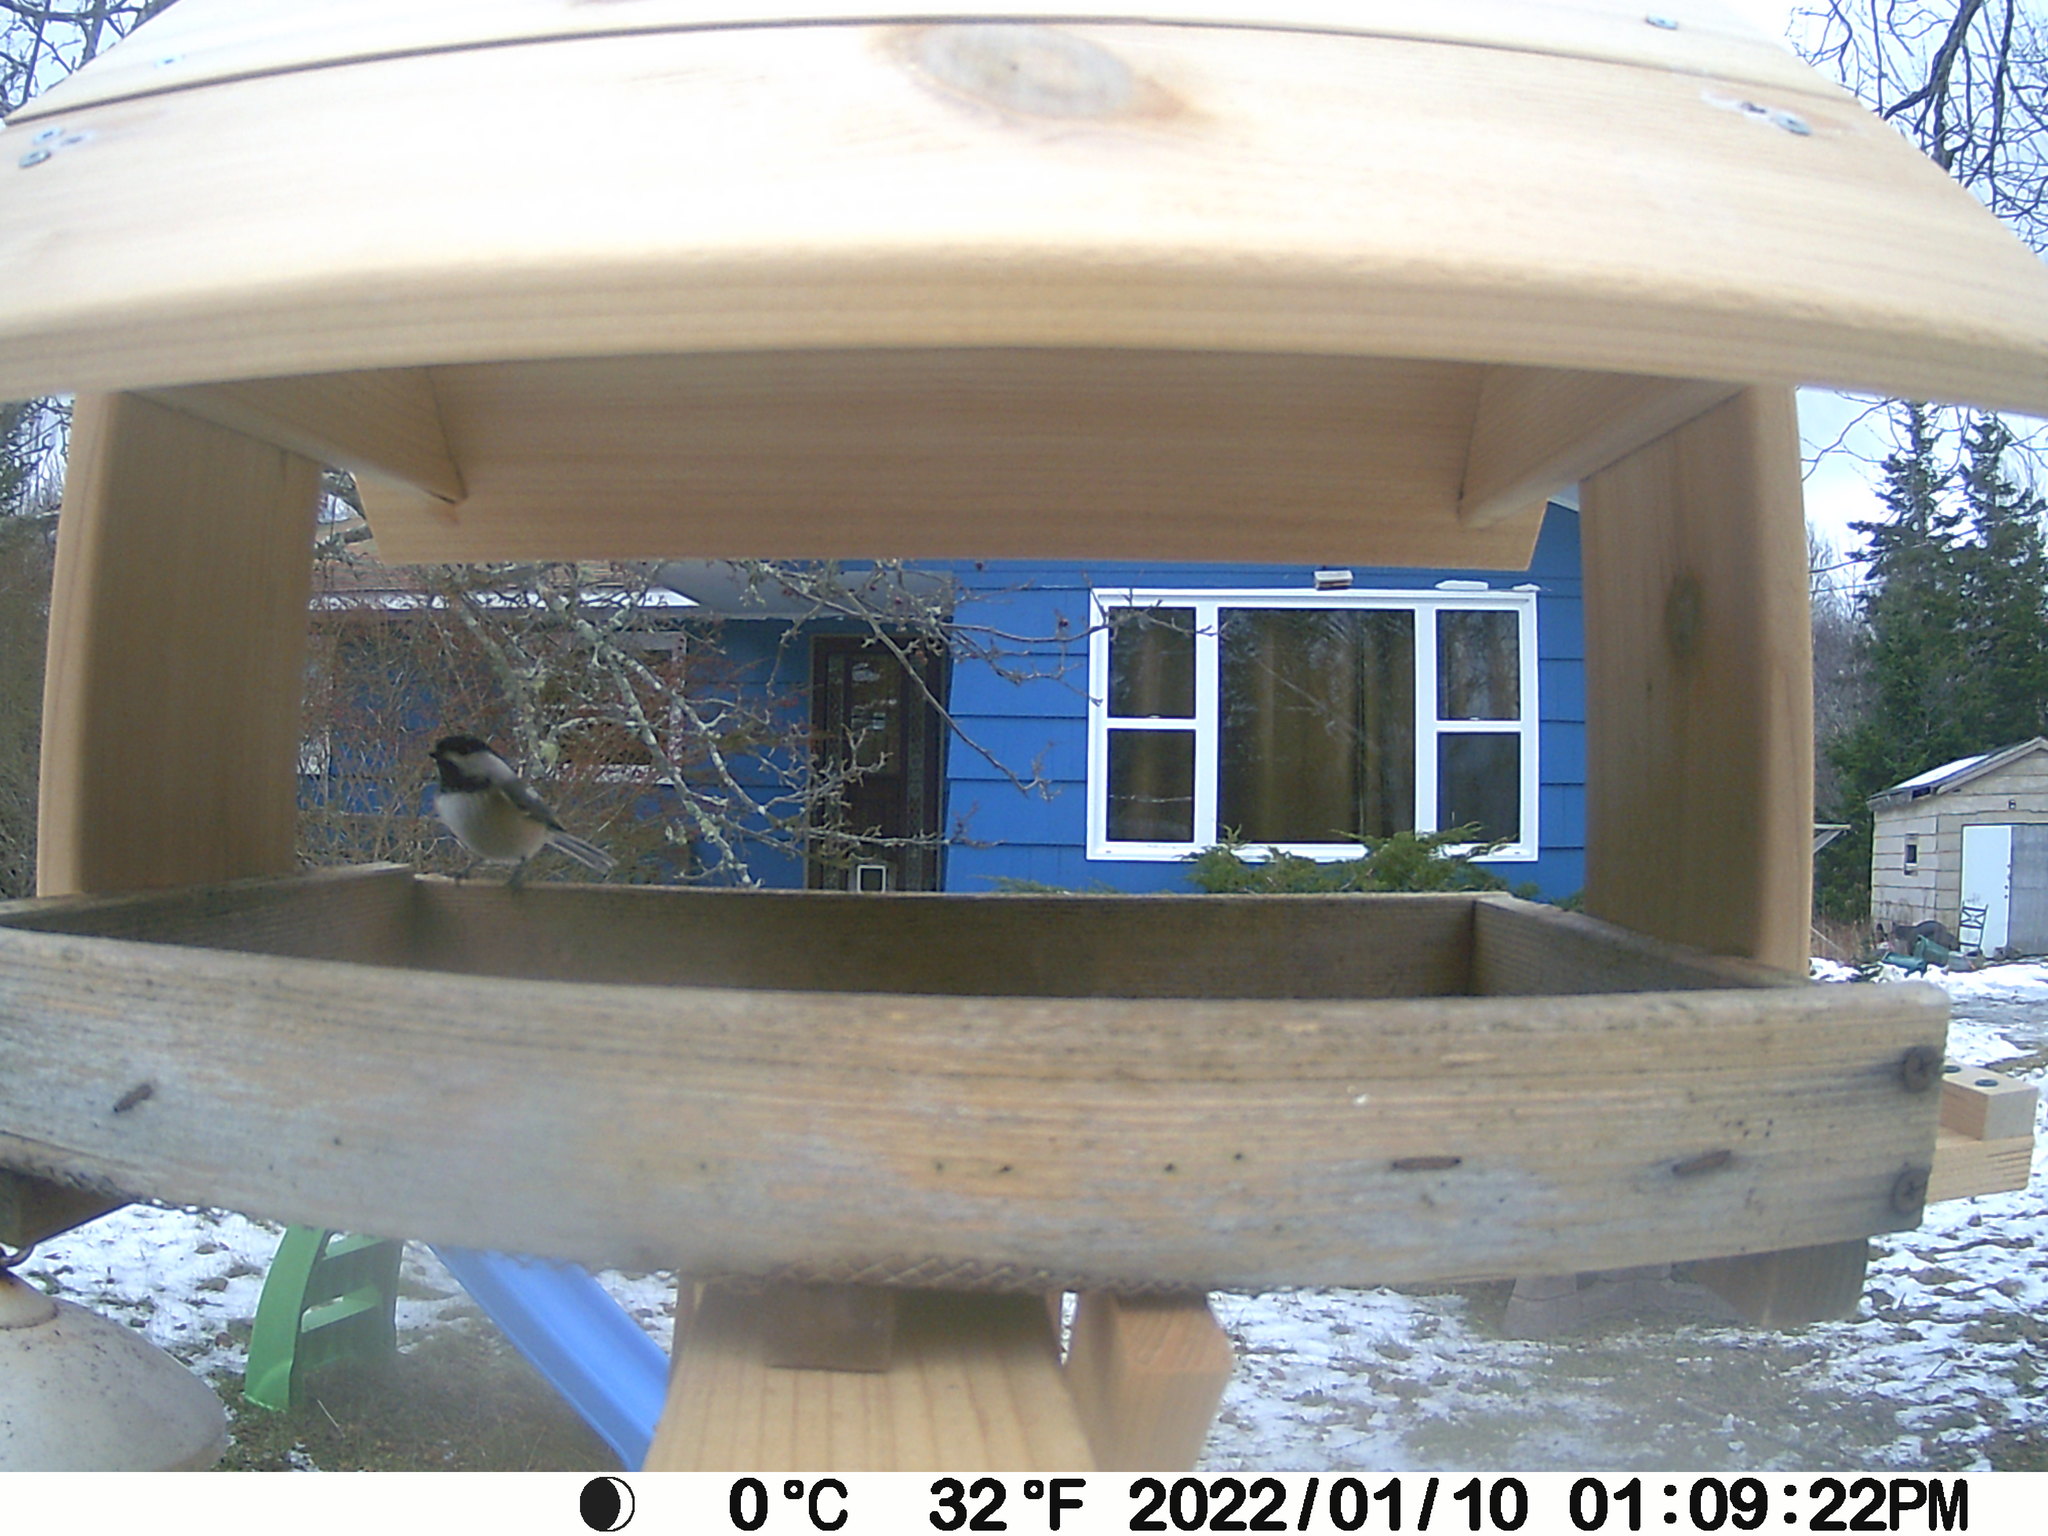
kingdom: Animalia
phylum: Chordata
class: Aves
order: Passeriformes
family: Paridae
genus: Poecile
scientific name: Poecile atricapillus
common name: Black-capped chickadee
